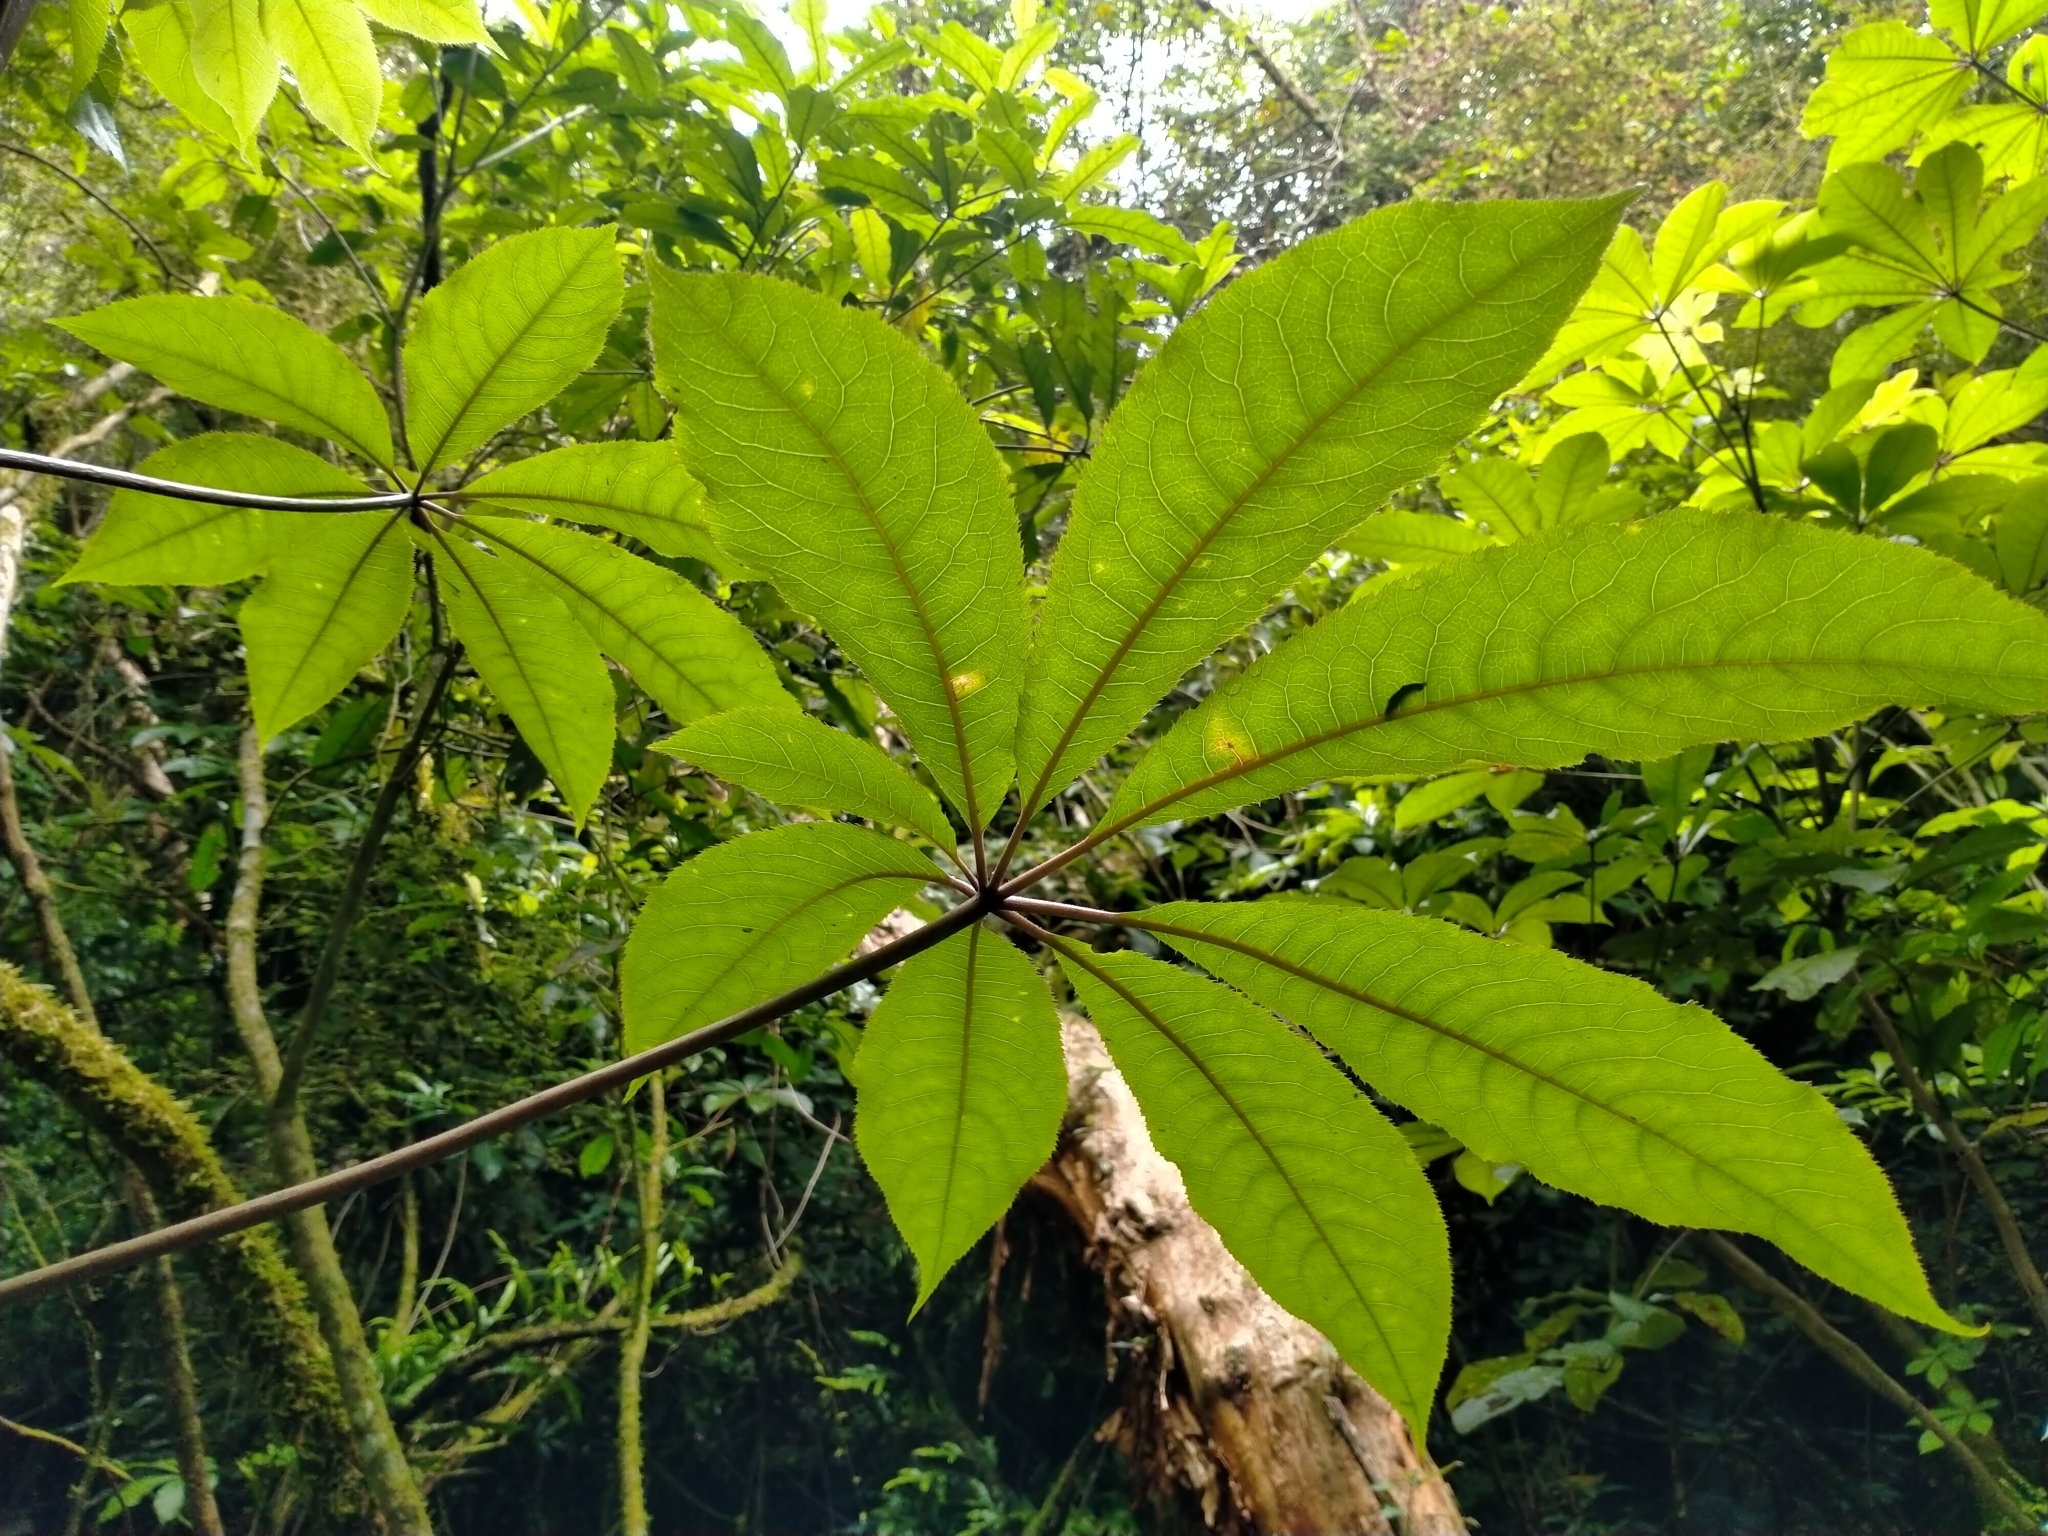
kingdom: Plantae
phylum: Tracheophyta
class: Magnoliopsida
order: Apiales
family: Araliaceae
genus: Schefflera
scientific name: Schefflera digitata
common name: Pate
